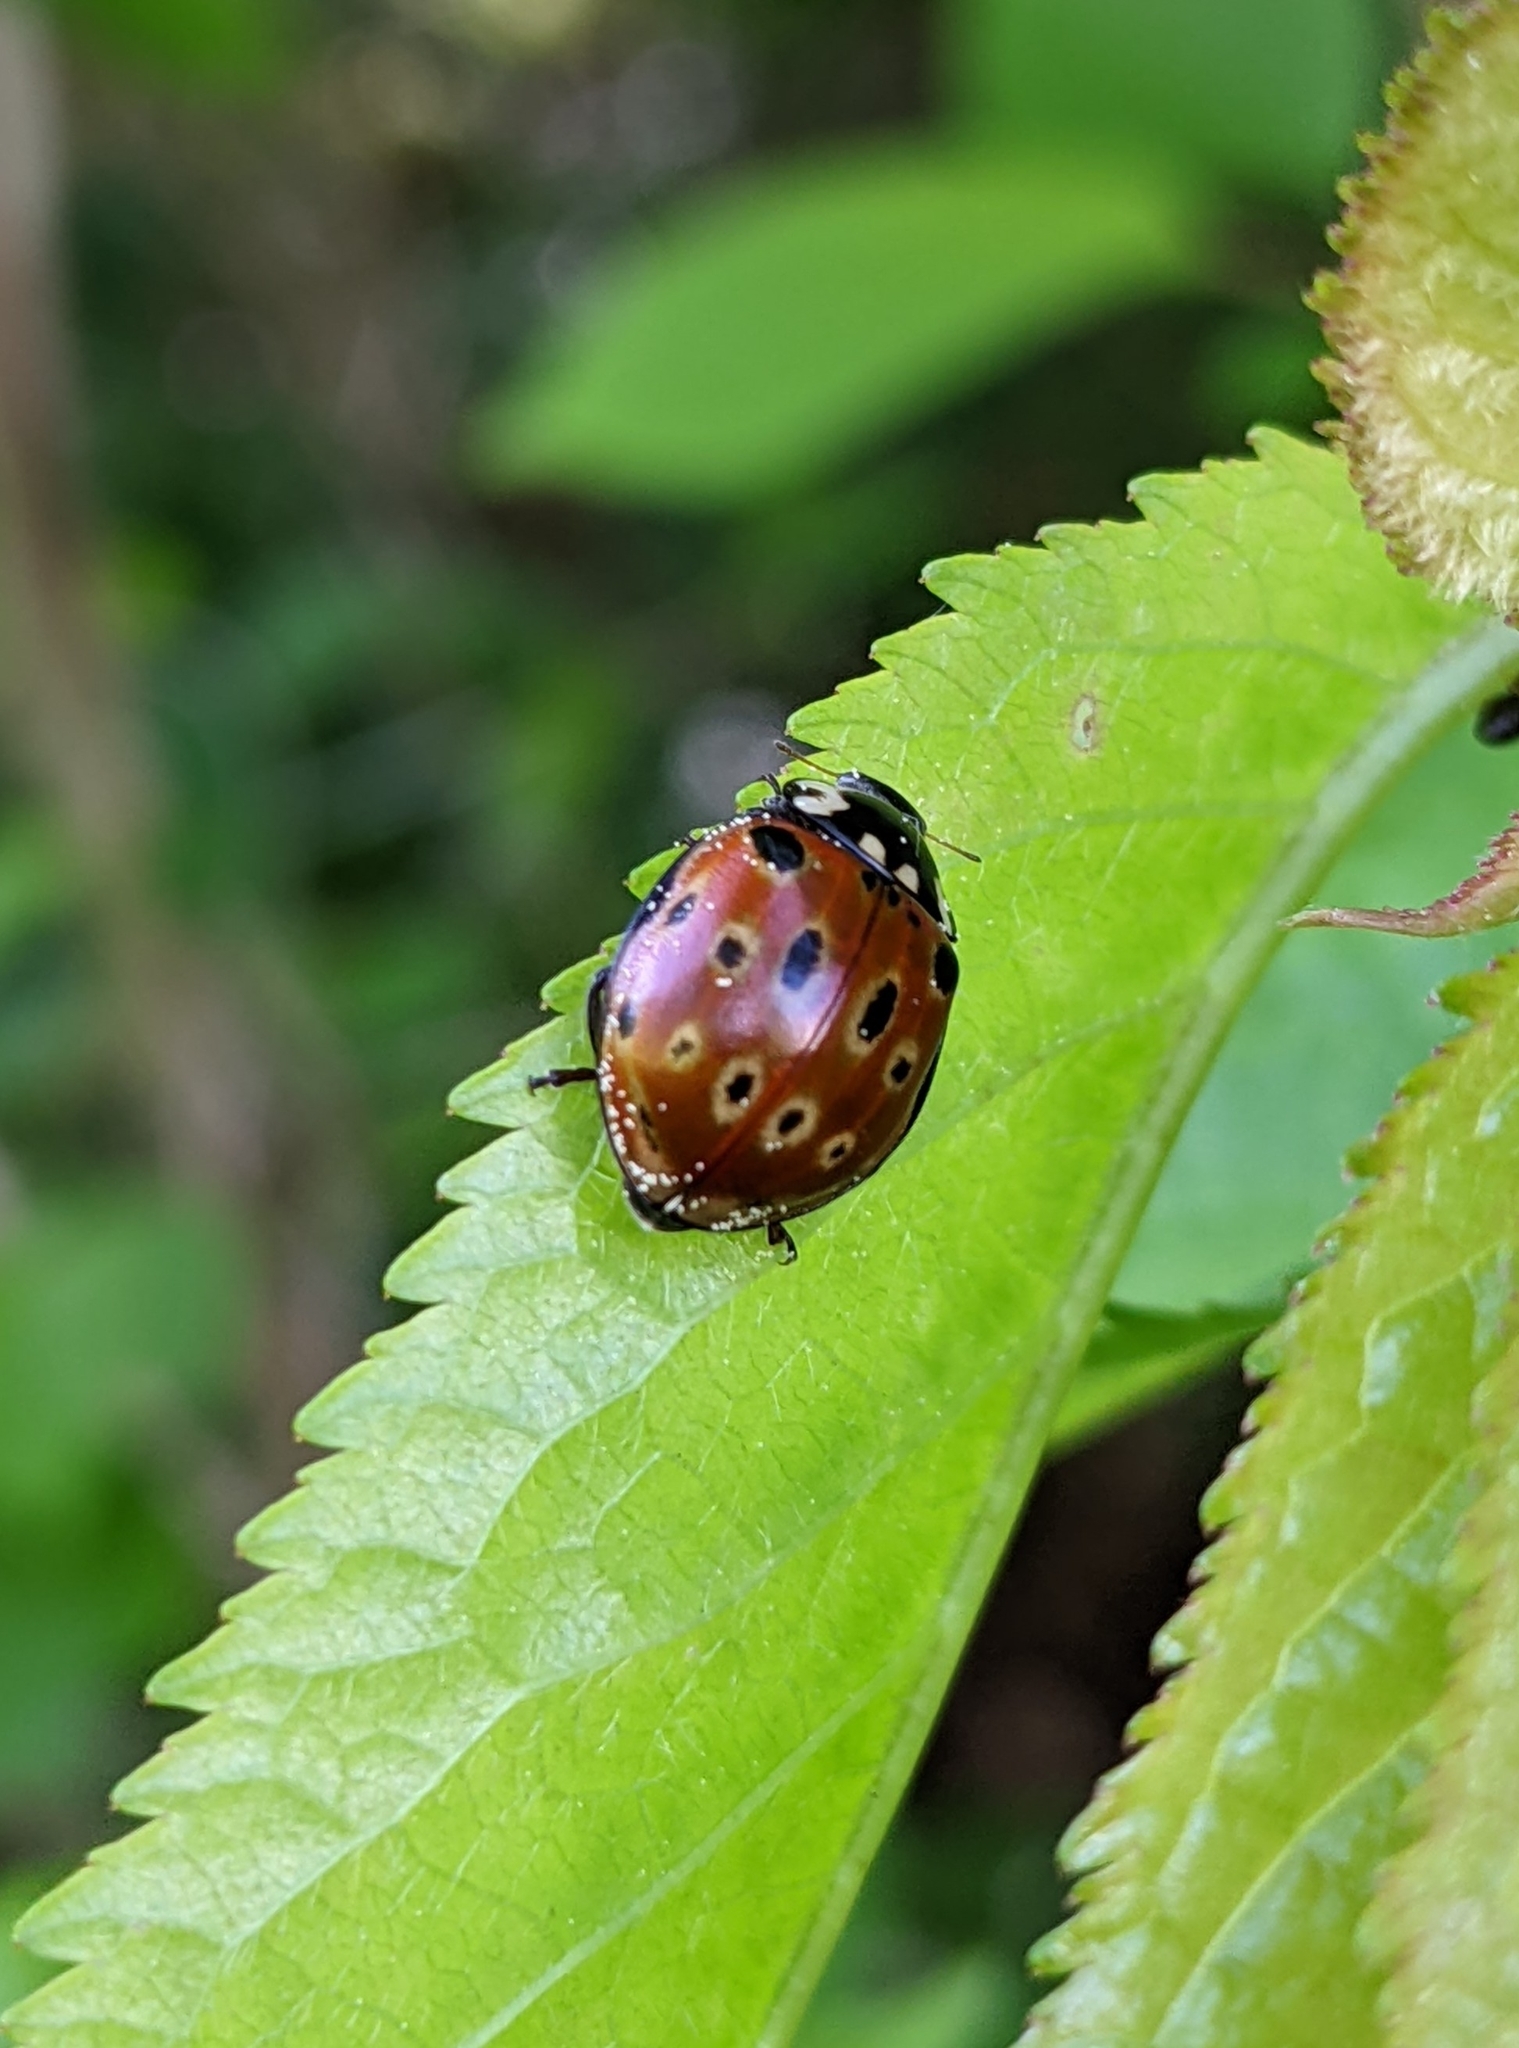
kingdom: Animalia
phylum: Arthropoda
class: Insecta
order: Coleoptera
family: Coccinellidae
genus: Anatis
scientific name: Anatis ocellata
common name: Eyed ladybird
